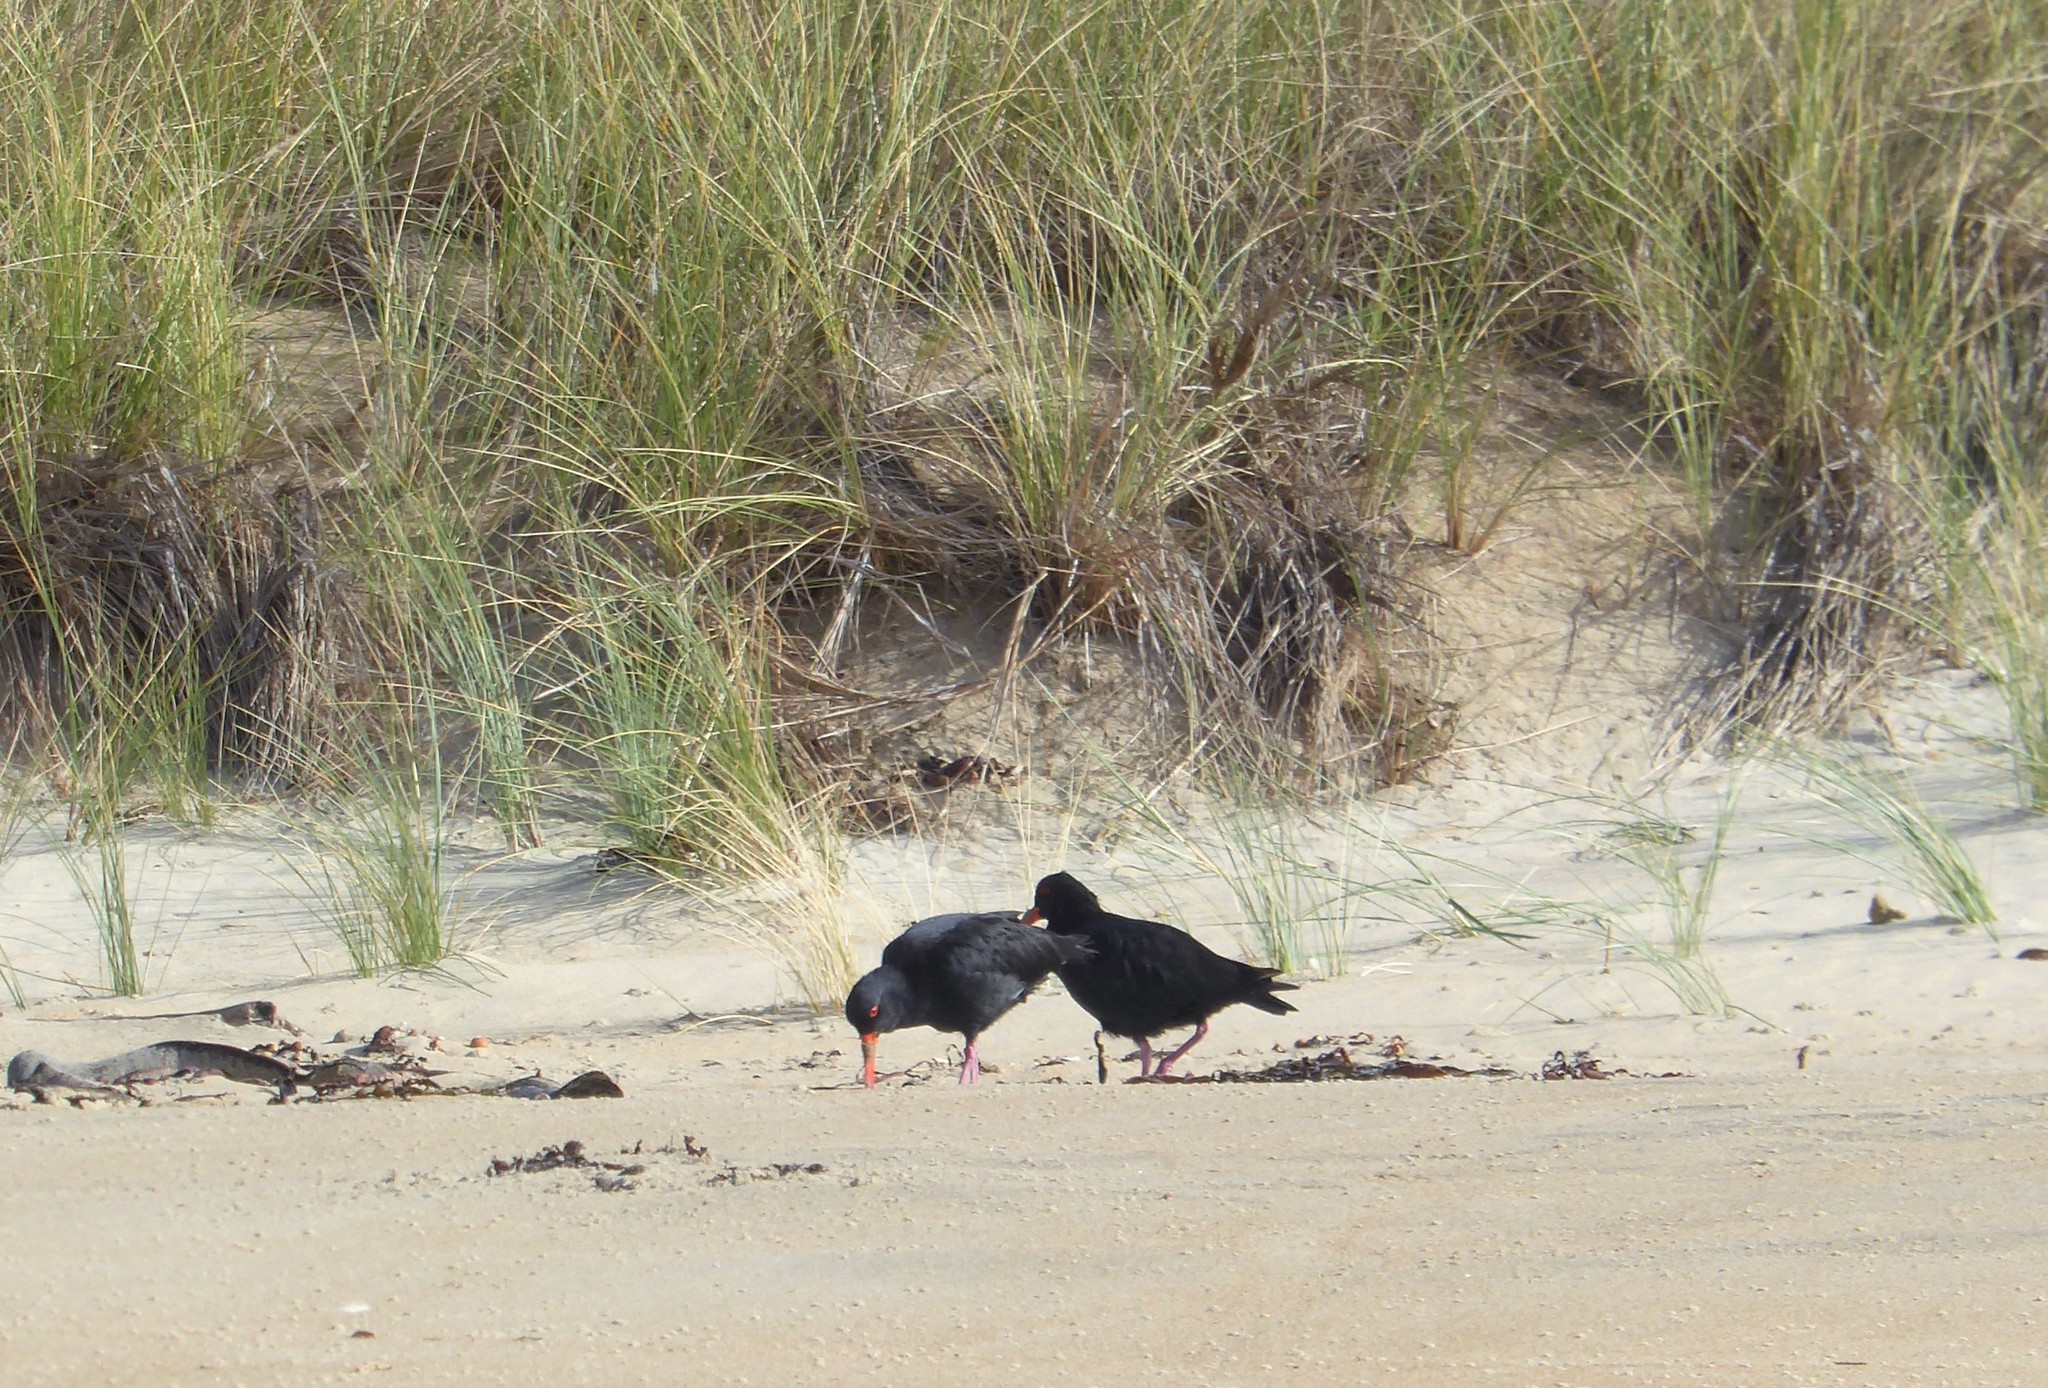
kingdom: Animalia
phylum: Chordata
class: Aves
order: Charadriiformes
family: Haematopodidae
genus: Haematopus
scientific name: Haematopus unicolor
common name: Variable oystercatcher
